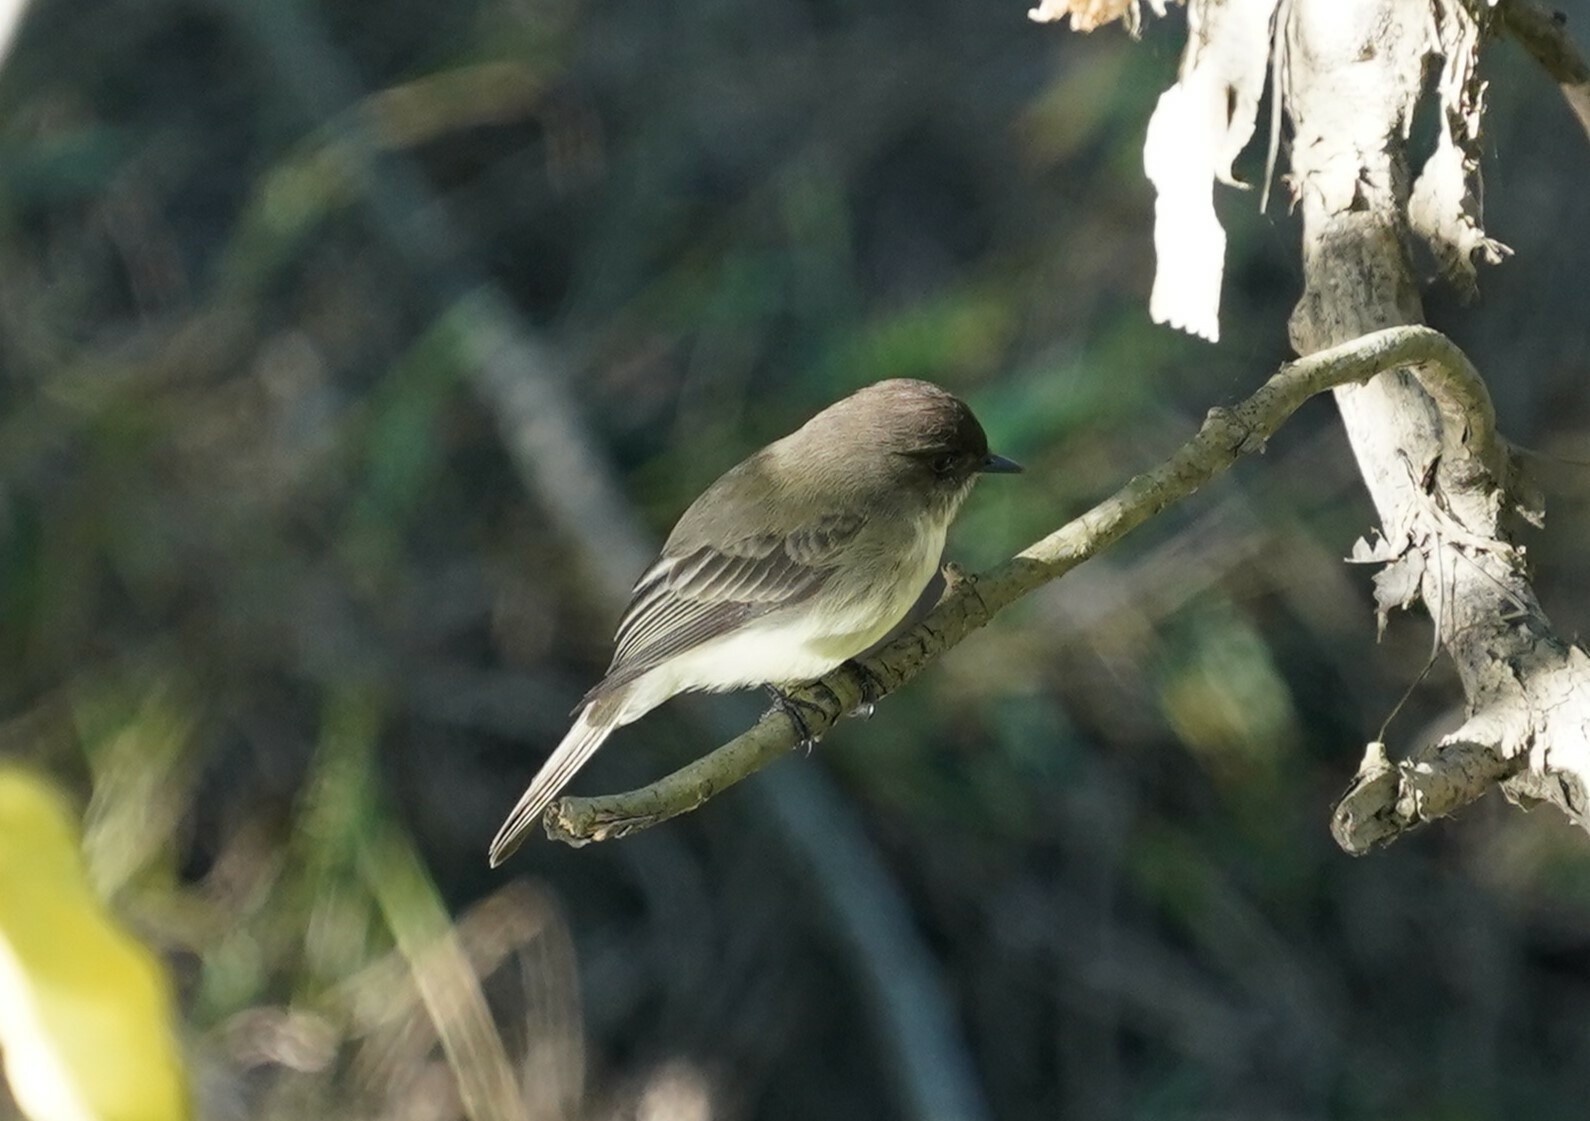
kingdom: Animalia
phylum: Chordata
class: Aves
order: Passeriformes
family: Tyrannidae
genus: Sayornis
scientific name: Sayornis phoebe
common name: Eastern phoebe
